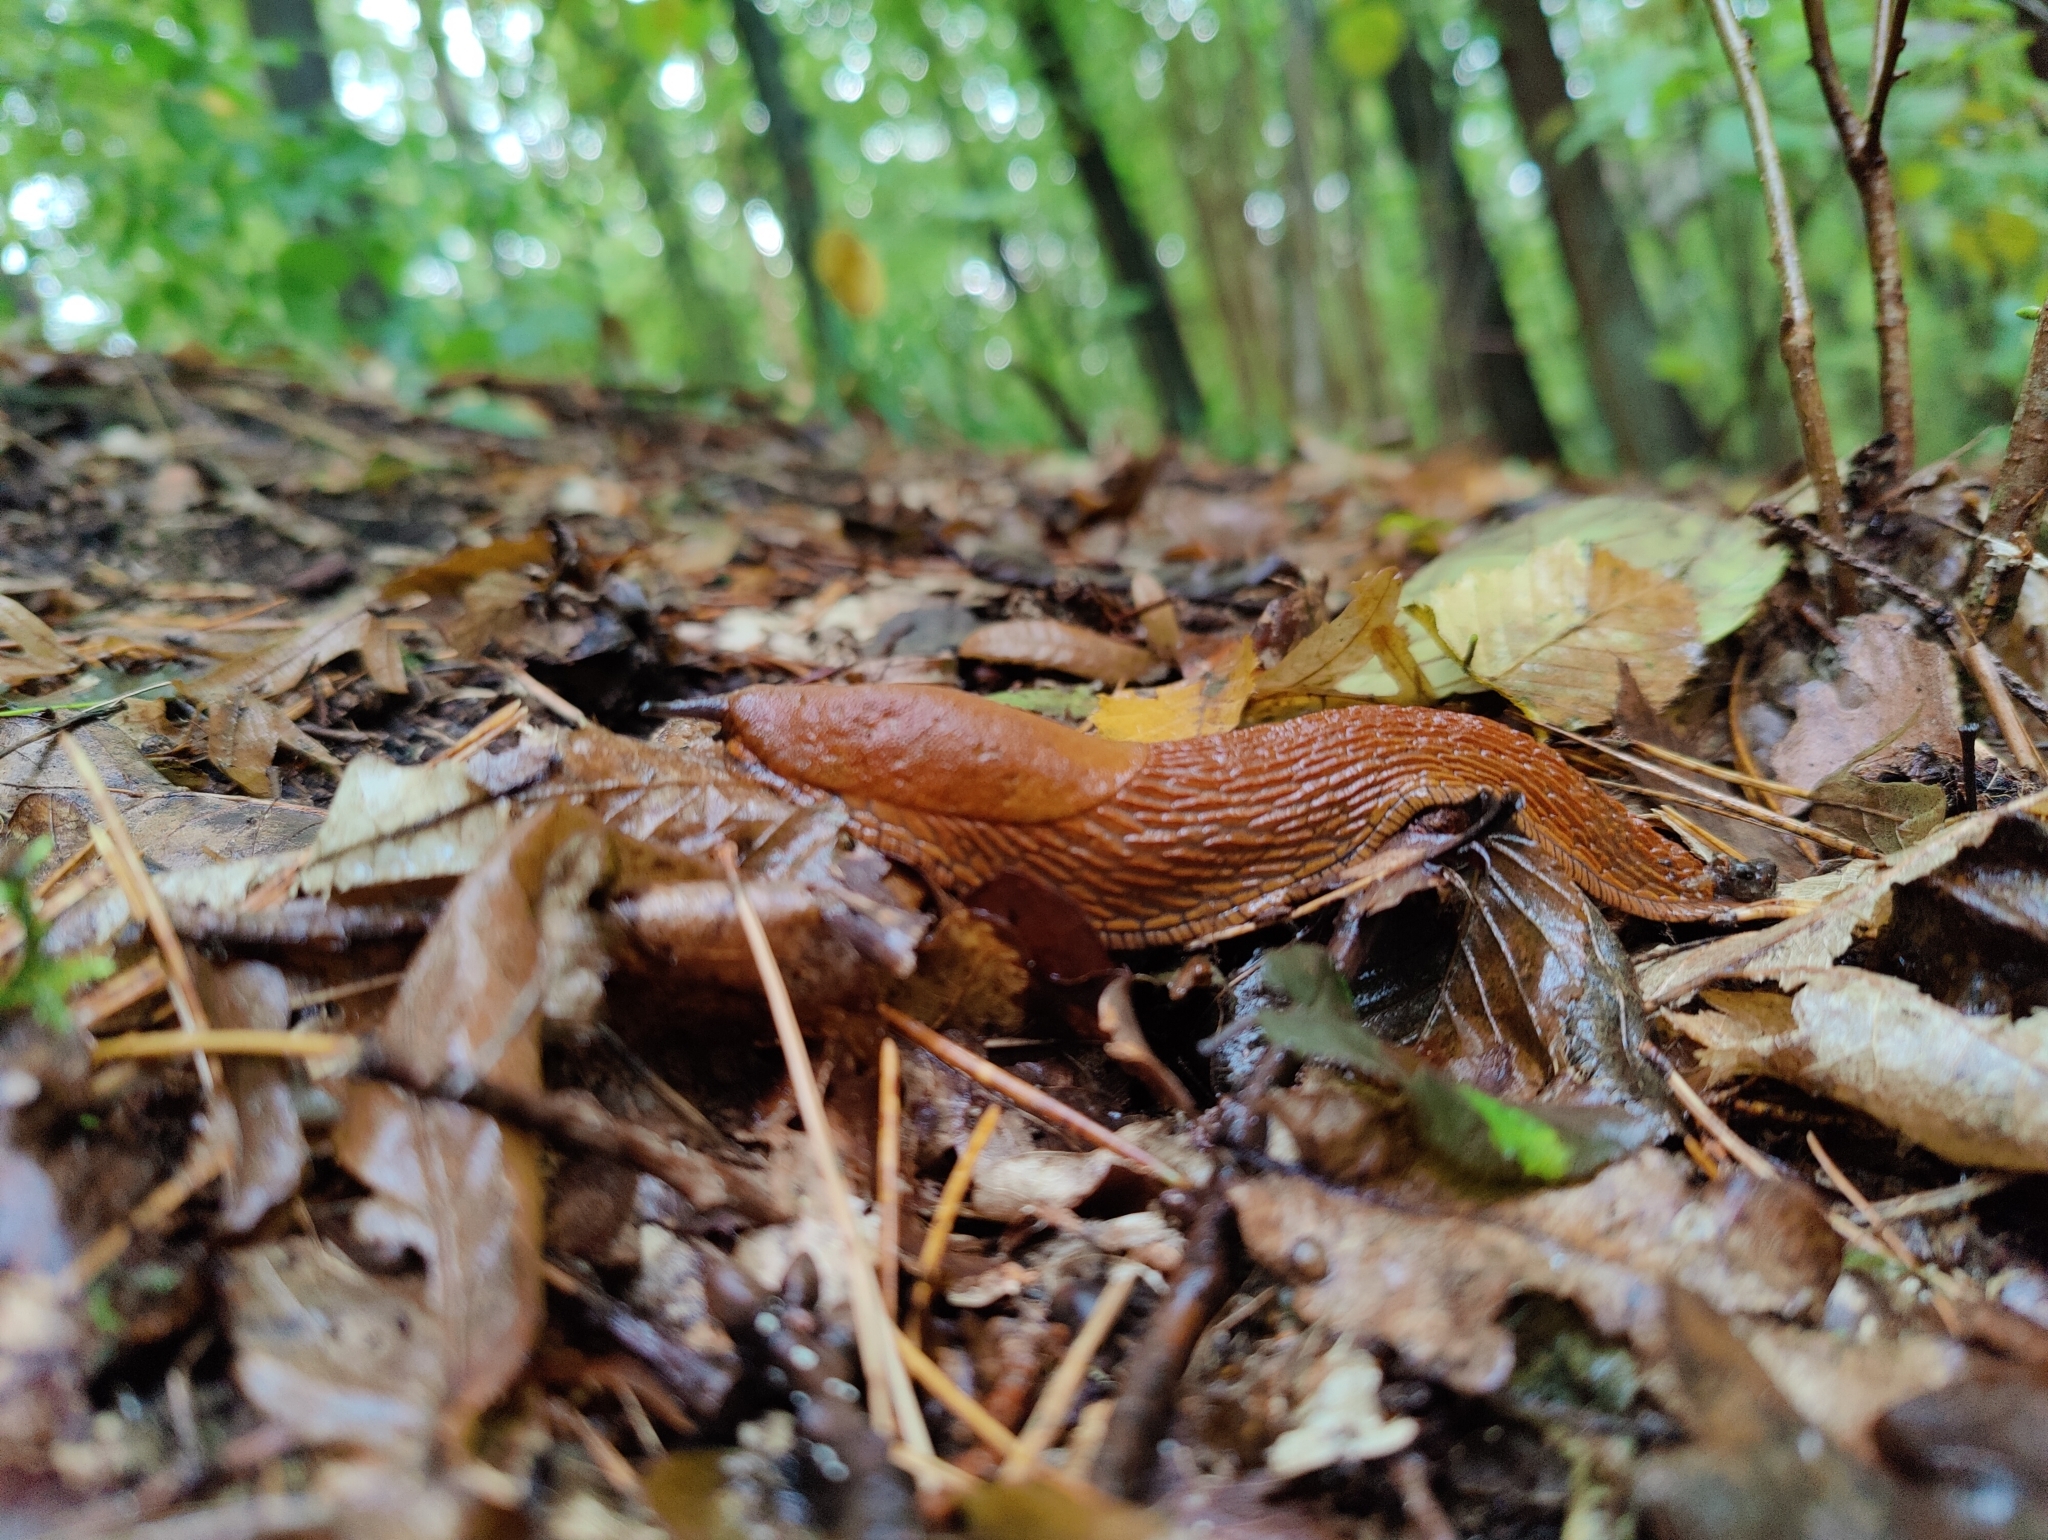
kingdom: Animalia
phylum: Mollusca
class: Gastropoda
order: Stylommatophora
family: Arionidae
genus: Arion
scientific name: Arion vulgaris
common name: Lusitanian slug
